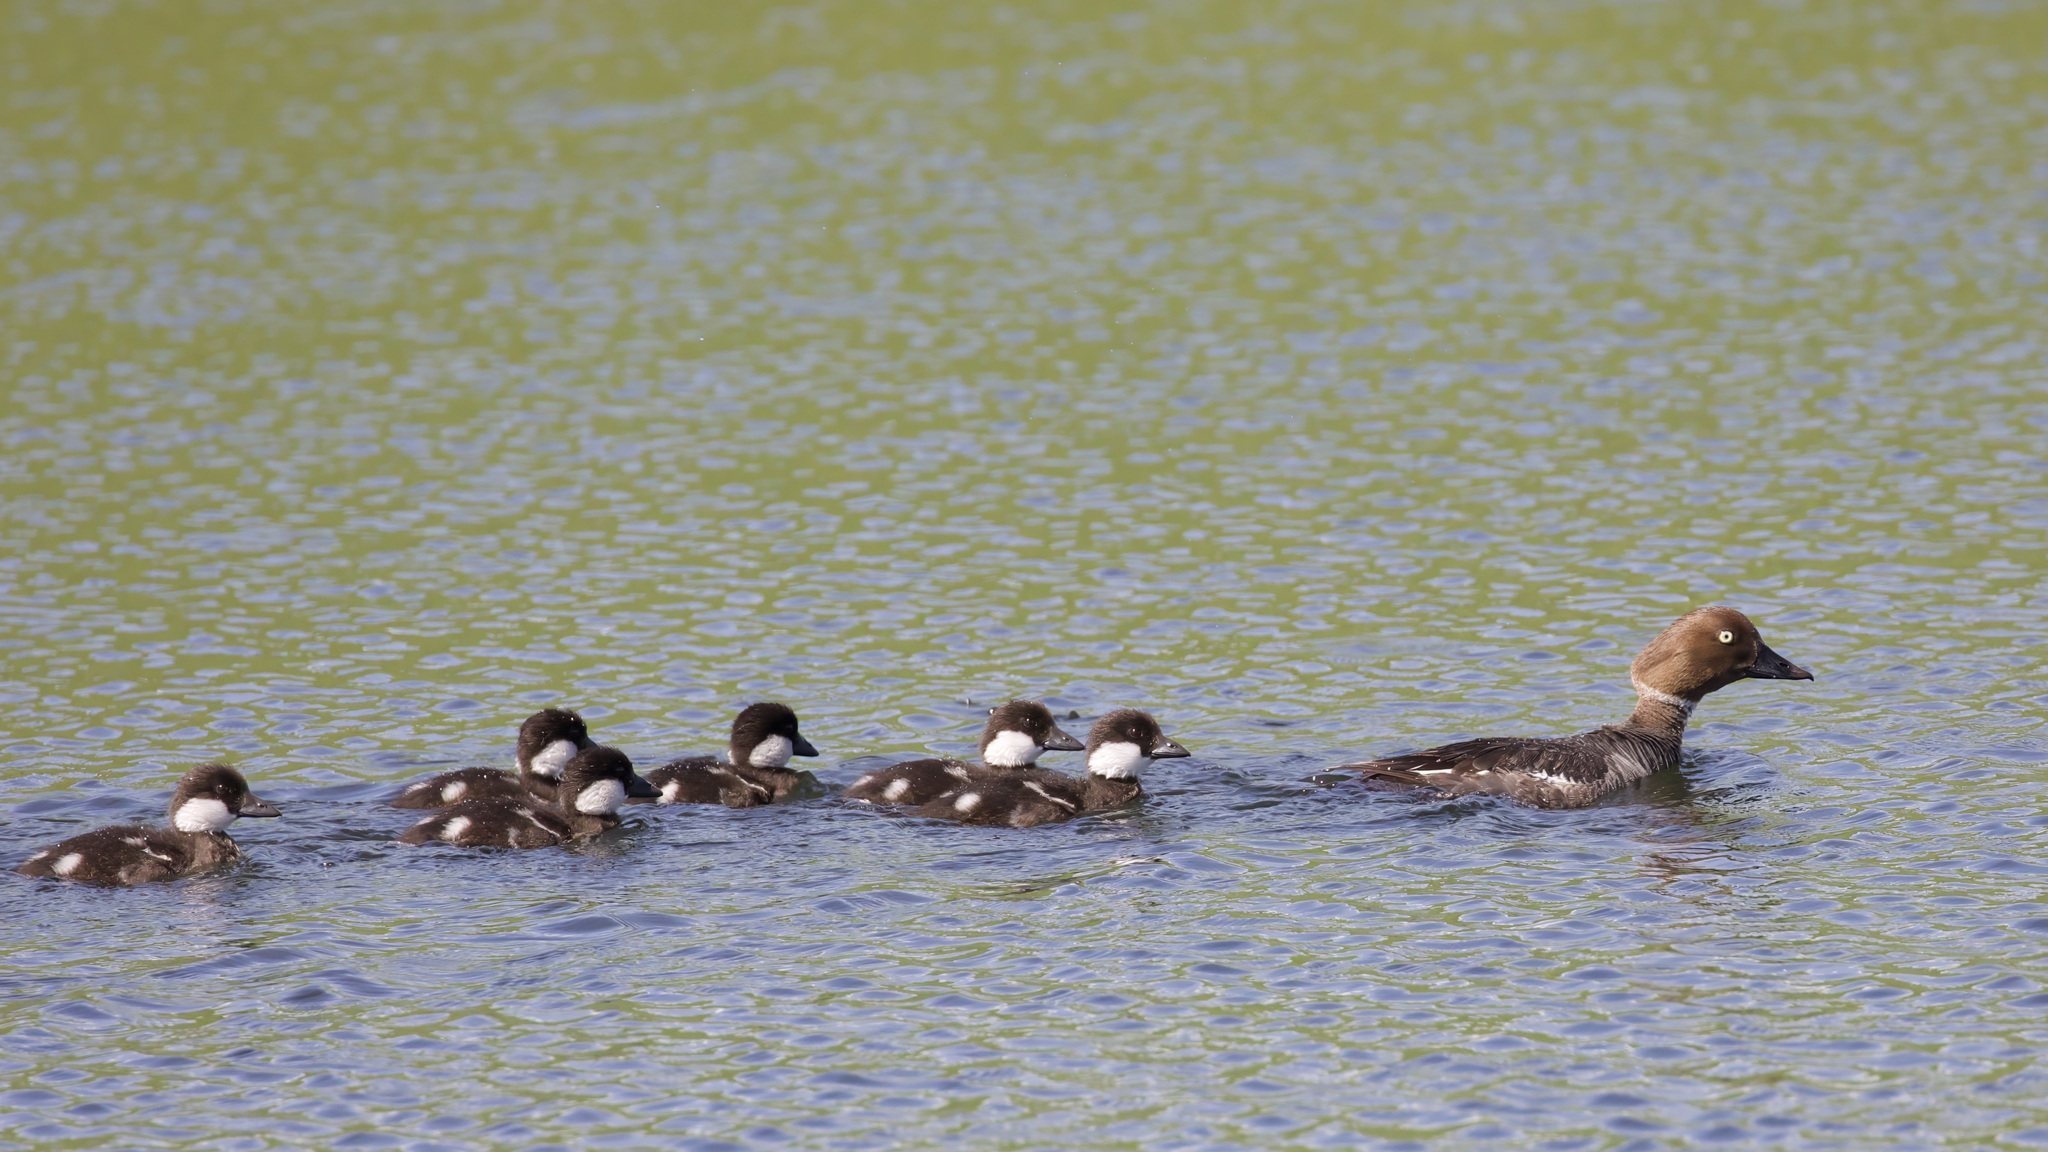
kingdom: Animalia
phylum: Chordata
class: Aves
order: Anseriformes
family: Anatidae
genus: Bucephala
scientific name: Bucephala clangula
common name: Common goldeneye
